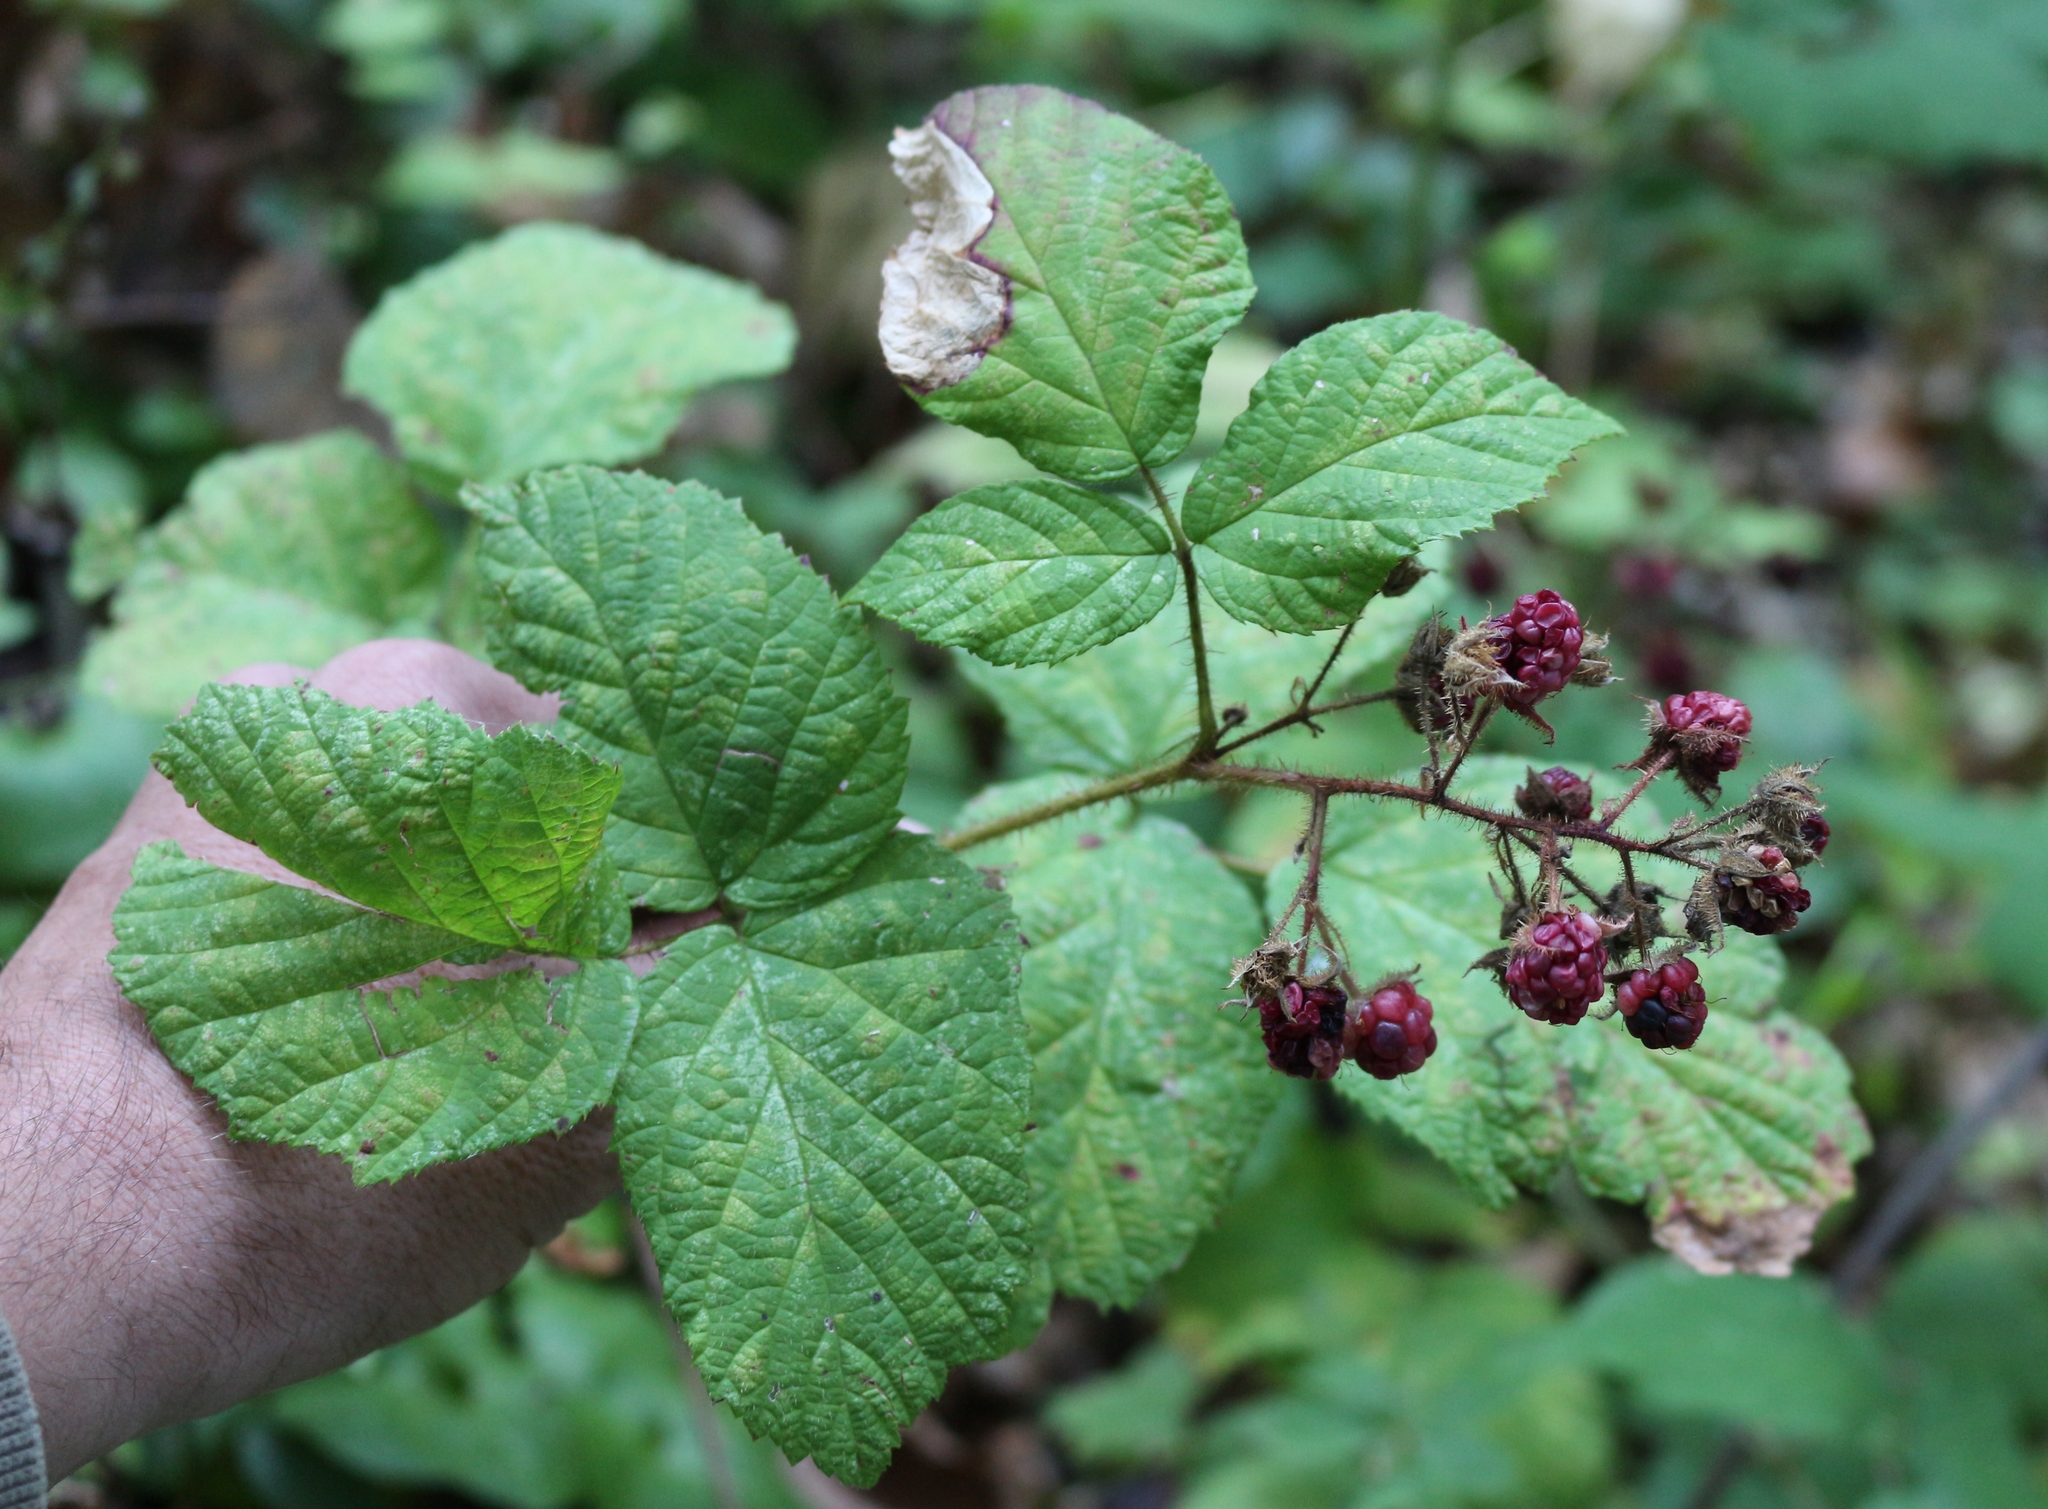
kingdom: Plantae
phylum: Tracheophyta
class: Magnoliopsida
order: Rosales
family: Rosaceae
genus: Rubus
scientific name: Rubus hirtus
